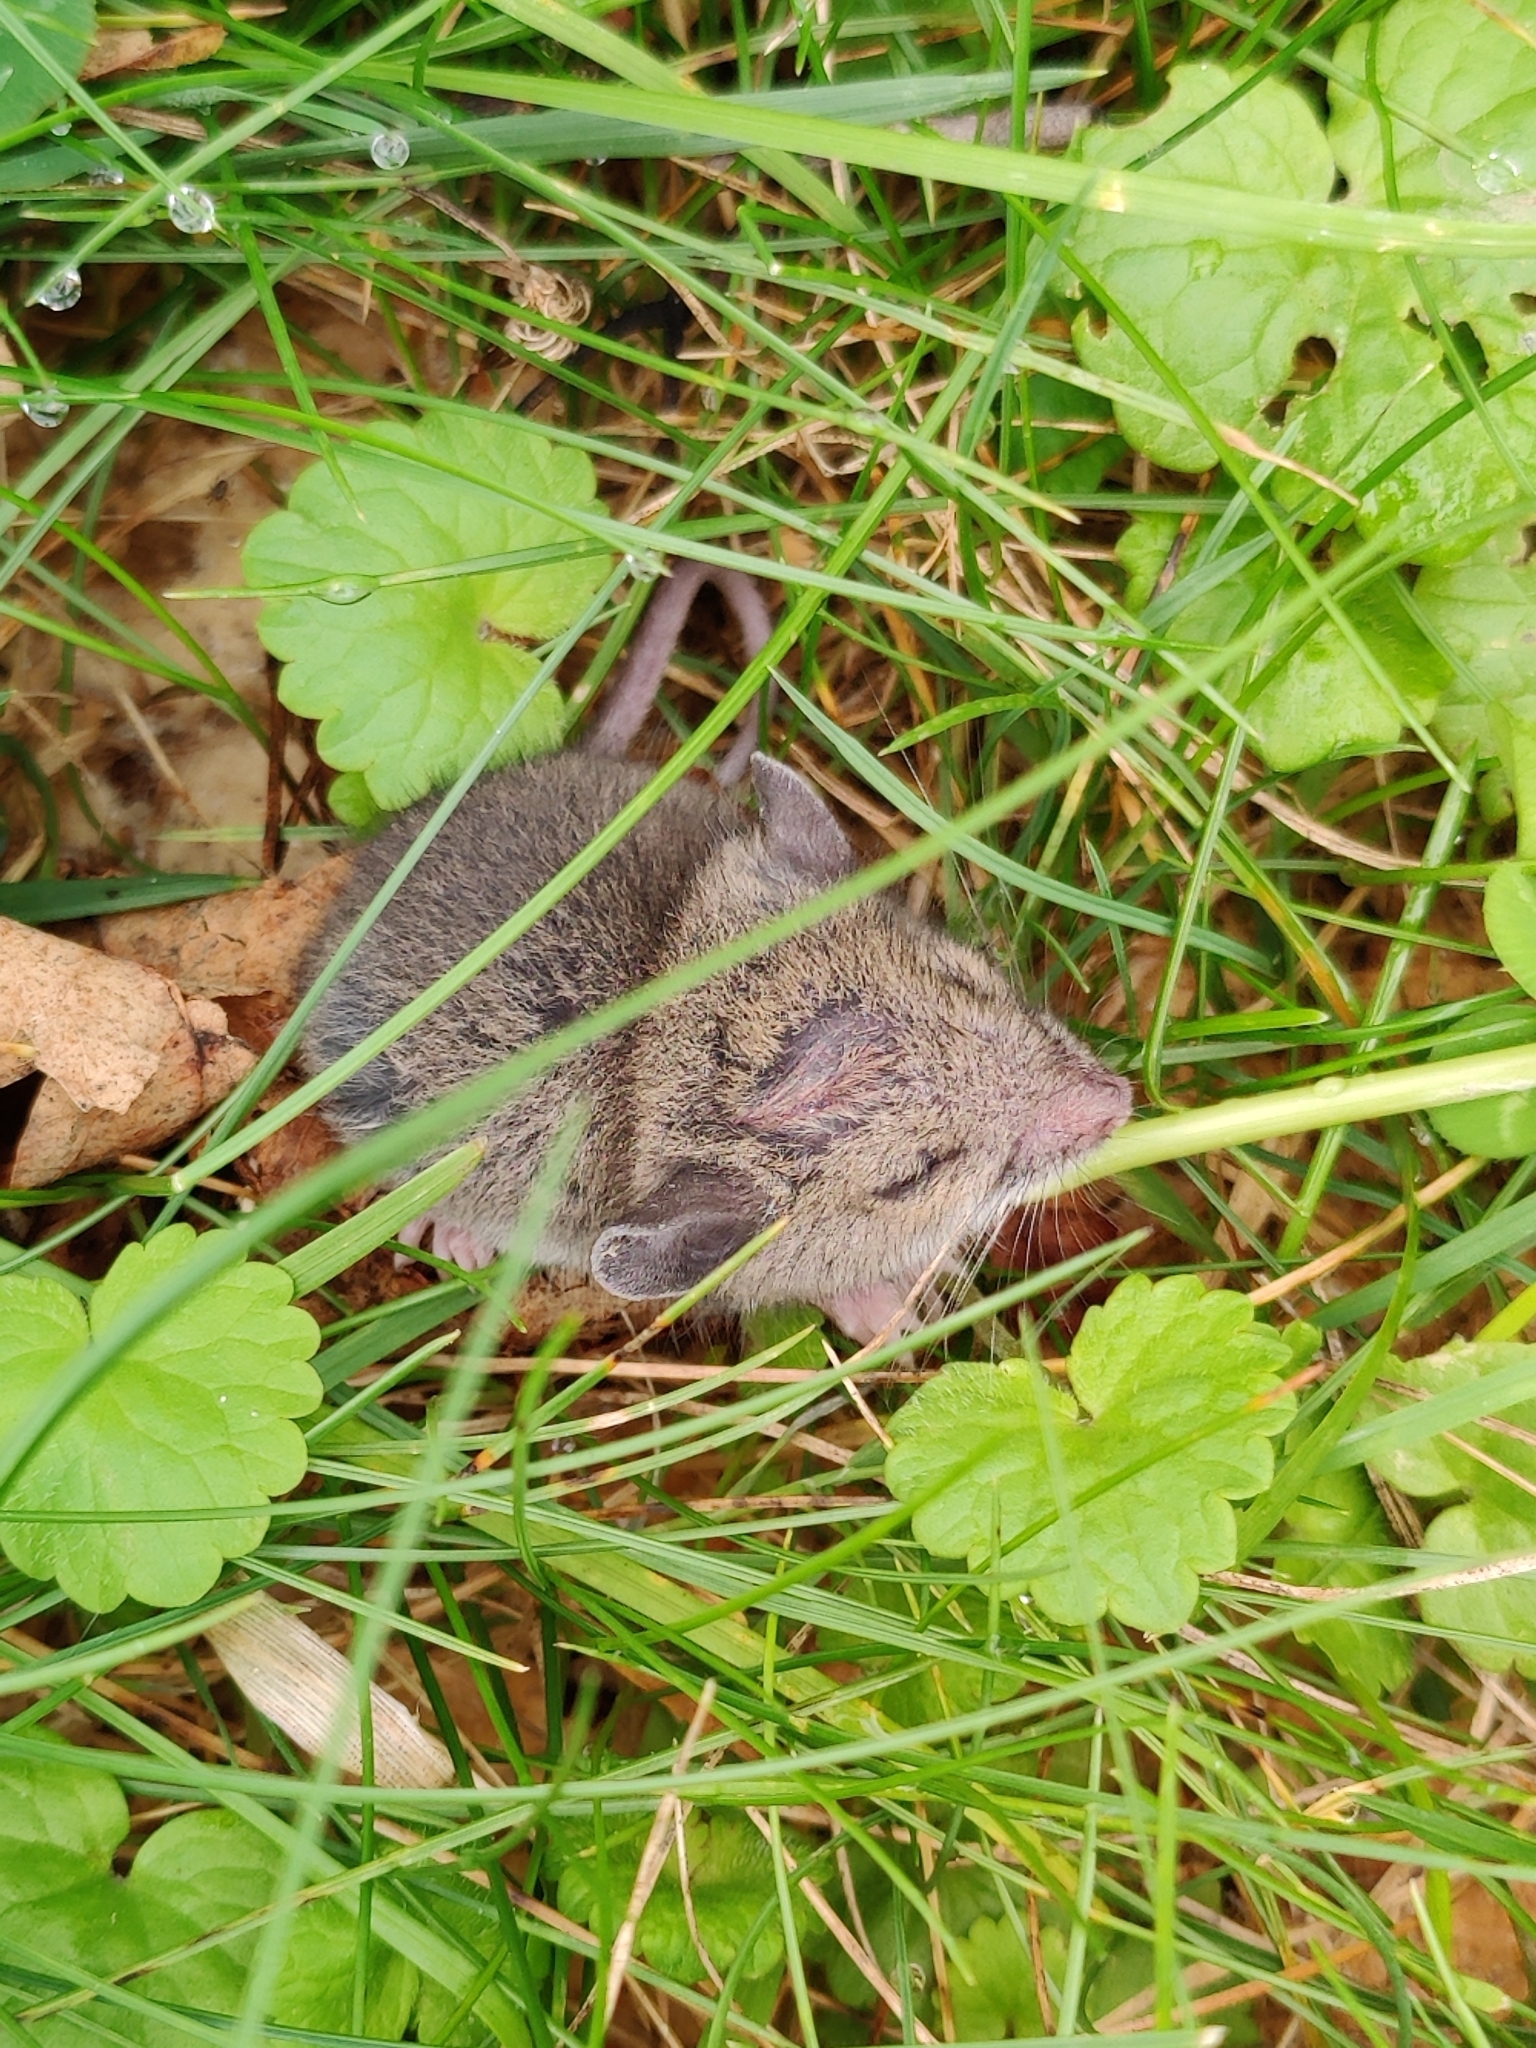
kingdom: Animalia
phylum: Chordata
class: Mammalia
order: Rodentia
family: Muridae
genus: Mus
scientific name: Mus musculus
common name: House mouse
